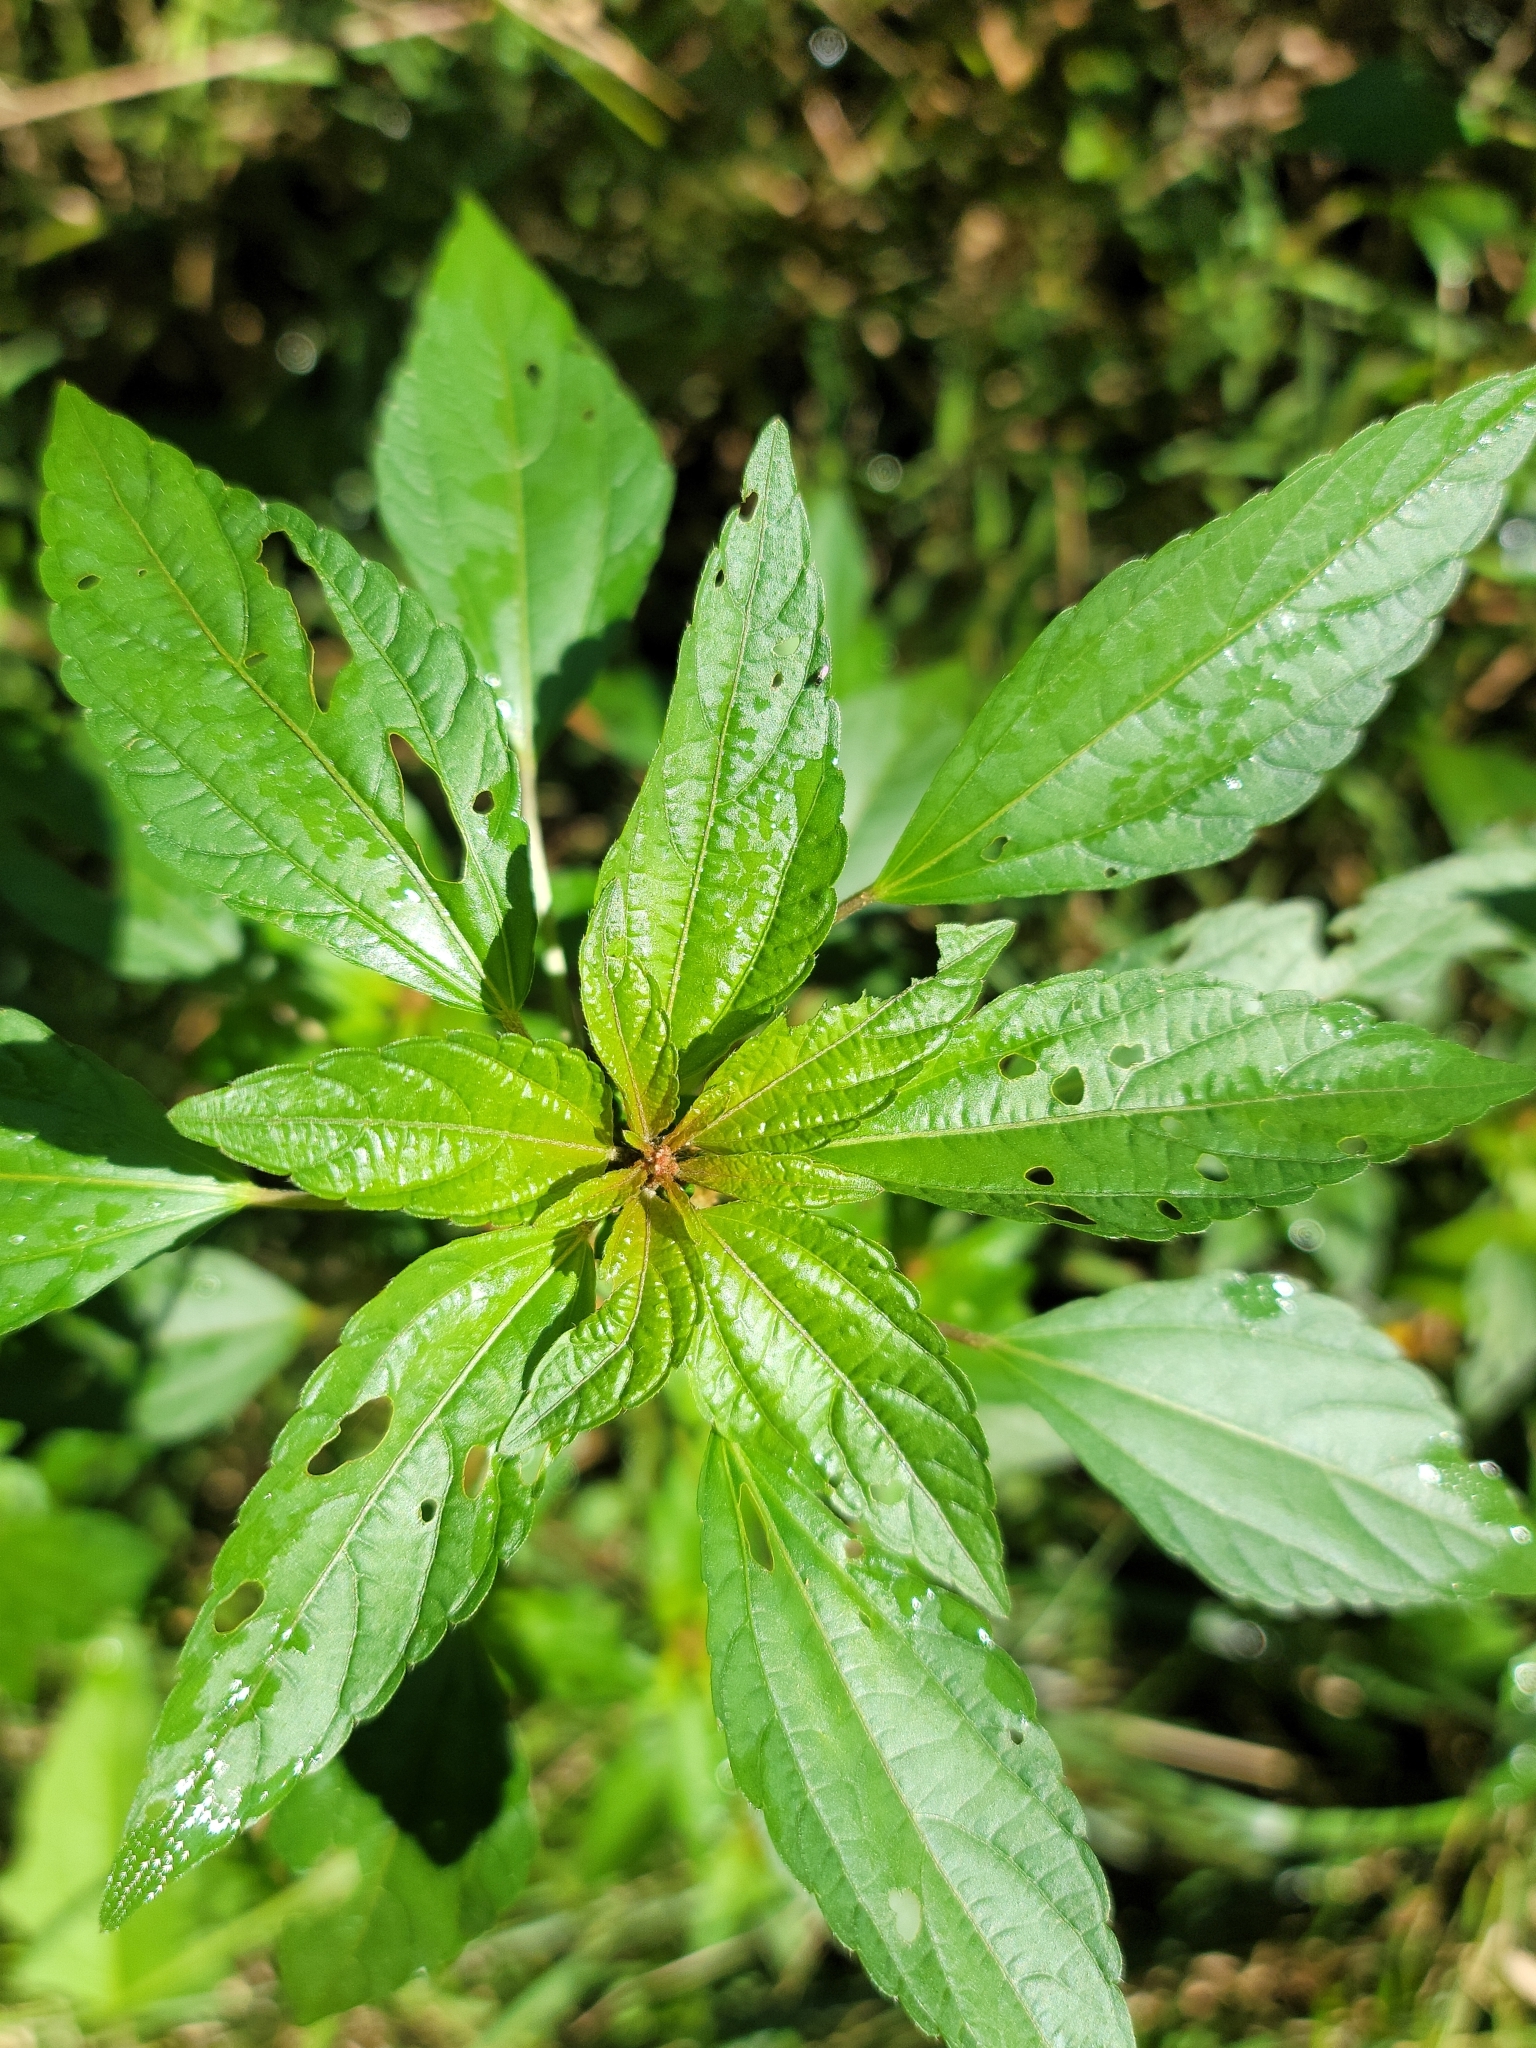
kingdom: Plantae
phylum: Tracheophyta
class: Magnoliopsida
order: Malpighiales
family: Euphorbiaceae
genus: Acalypha
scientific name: Acalypha rhomboidea
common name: Rhombic copperleaf
